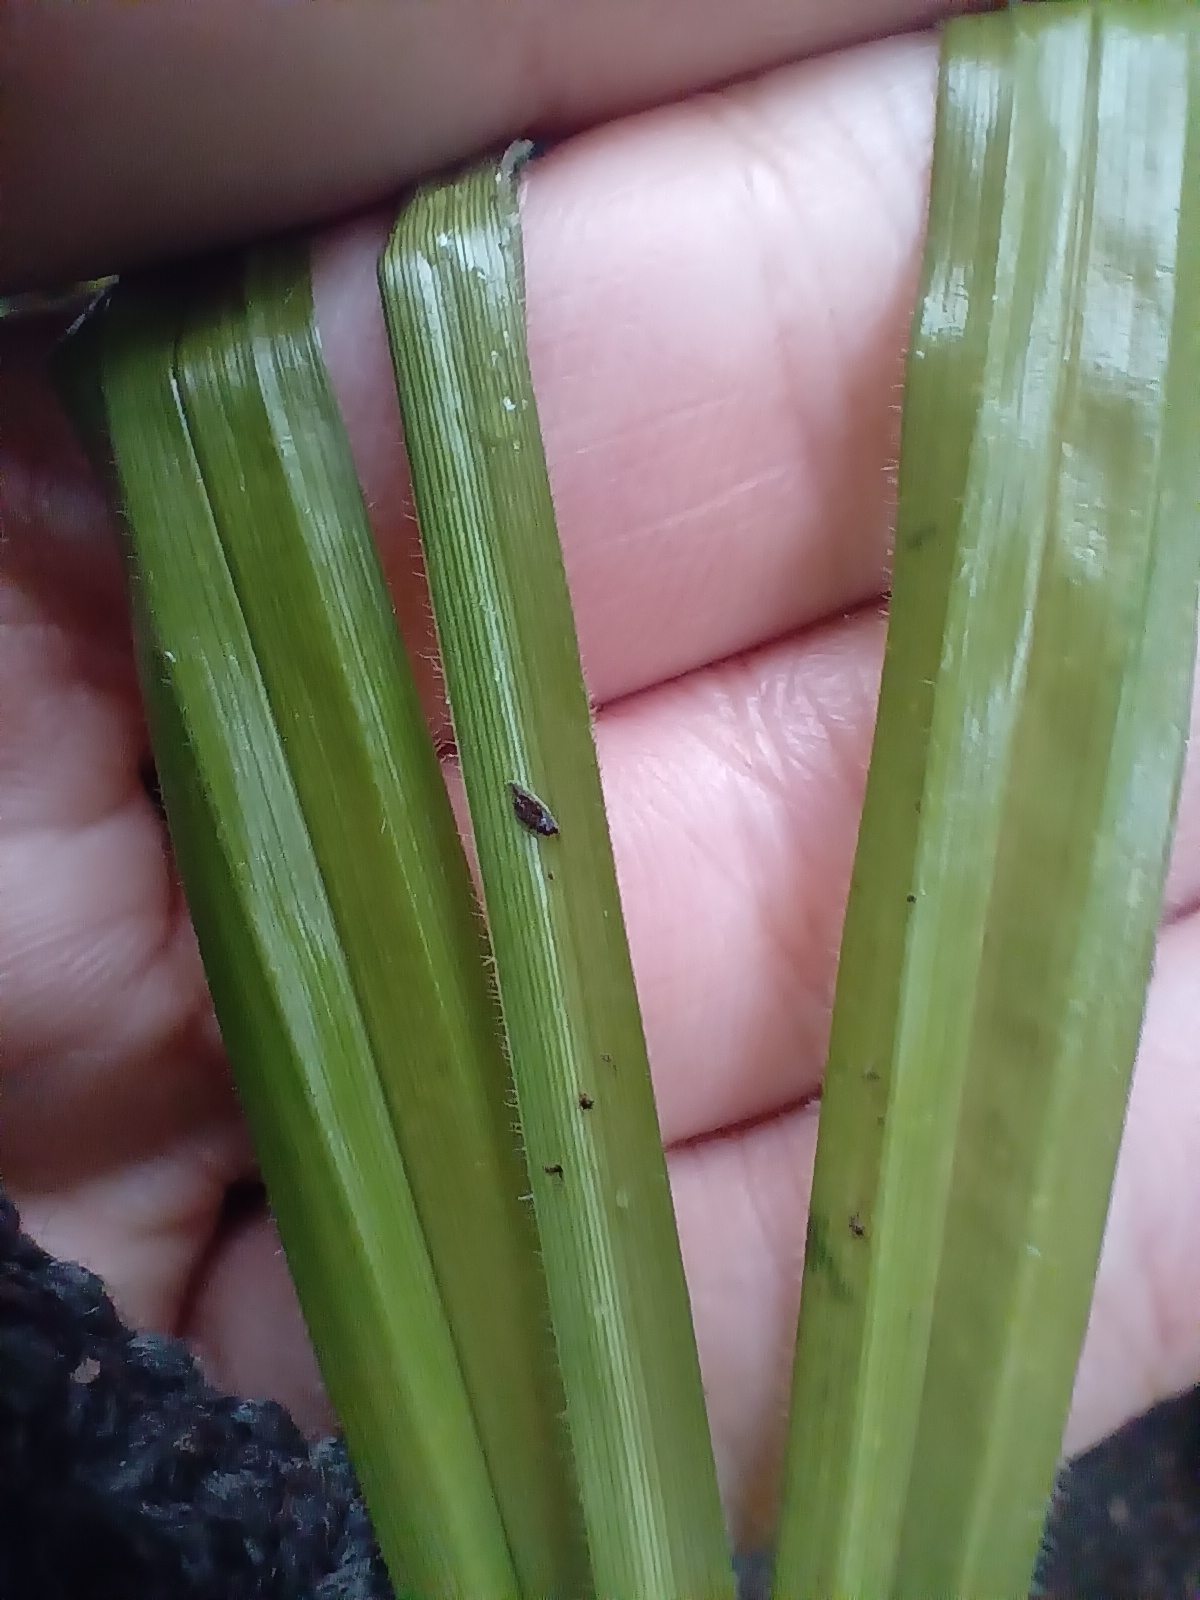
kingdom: Plantae
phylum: Tracheophyta
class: Liliopsida
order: Poales
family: Cyperaceae
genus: Carex
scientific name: Carex pilosa
